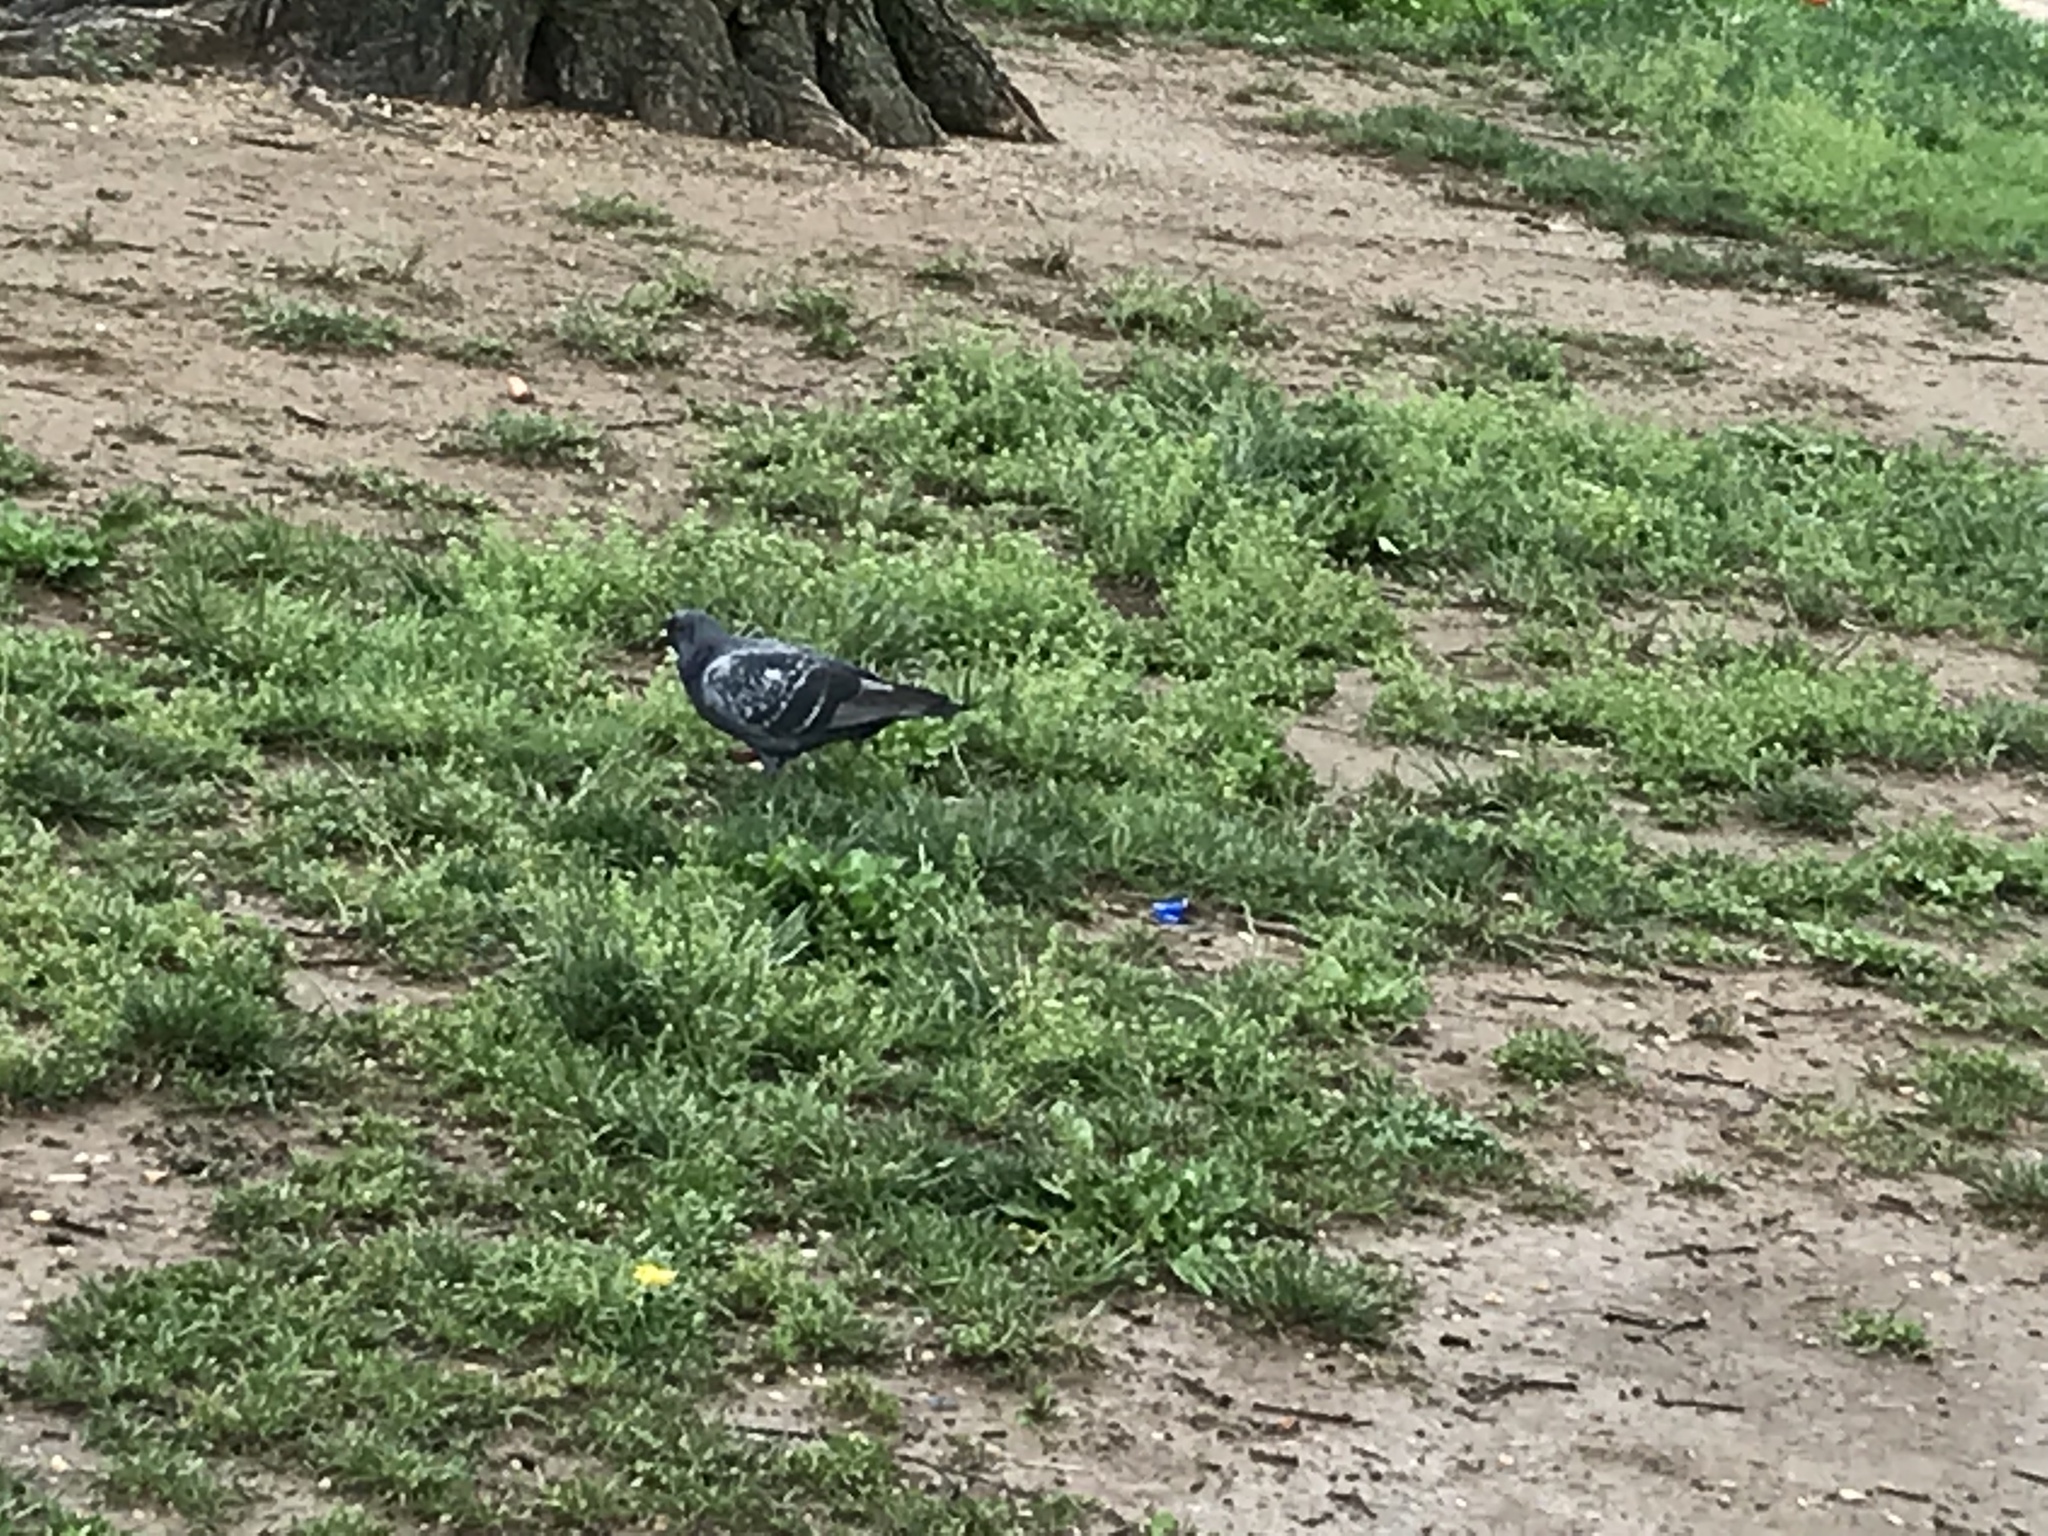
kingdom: Animalia
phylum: Chordata
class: Aves
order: Columbiformes
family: Columbidae
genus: Columba
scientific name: Columba livia
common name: Rock pigeon
